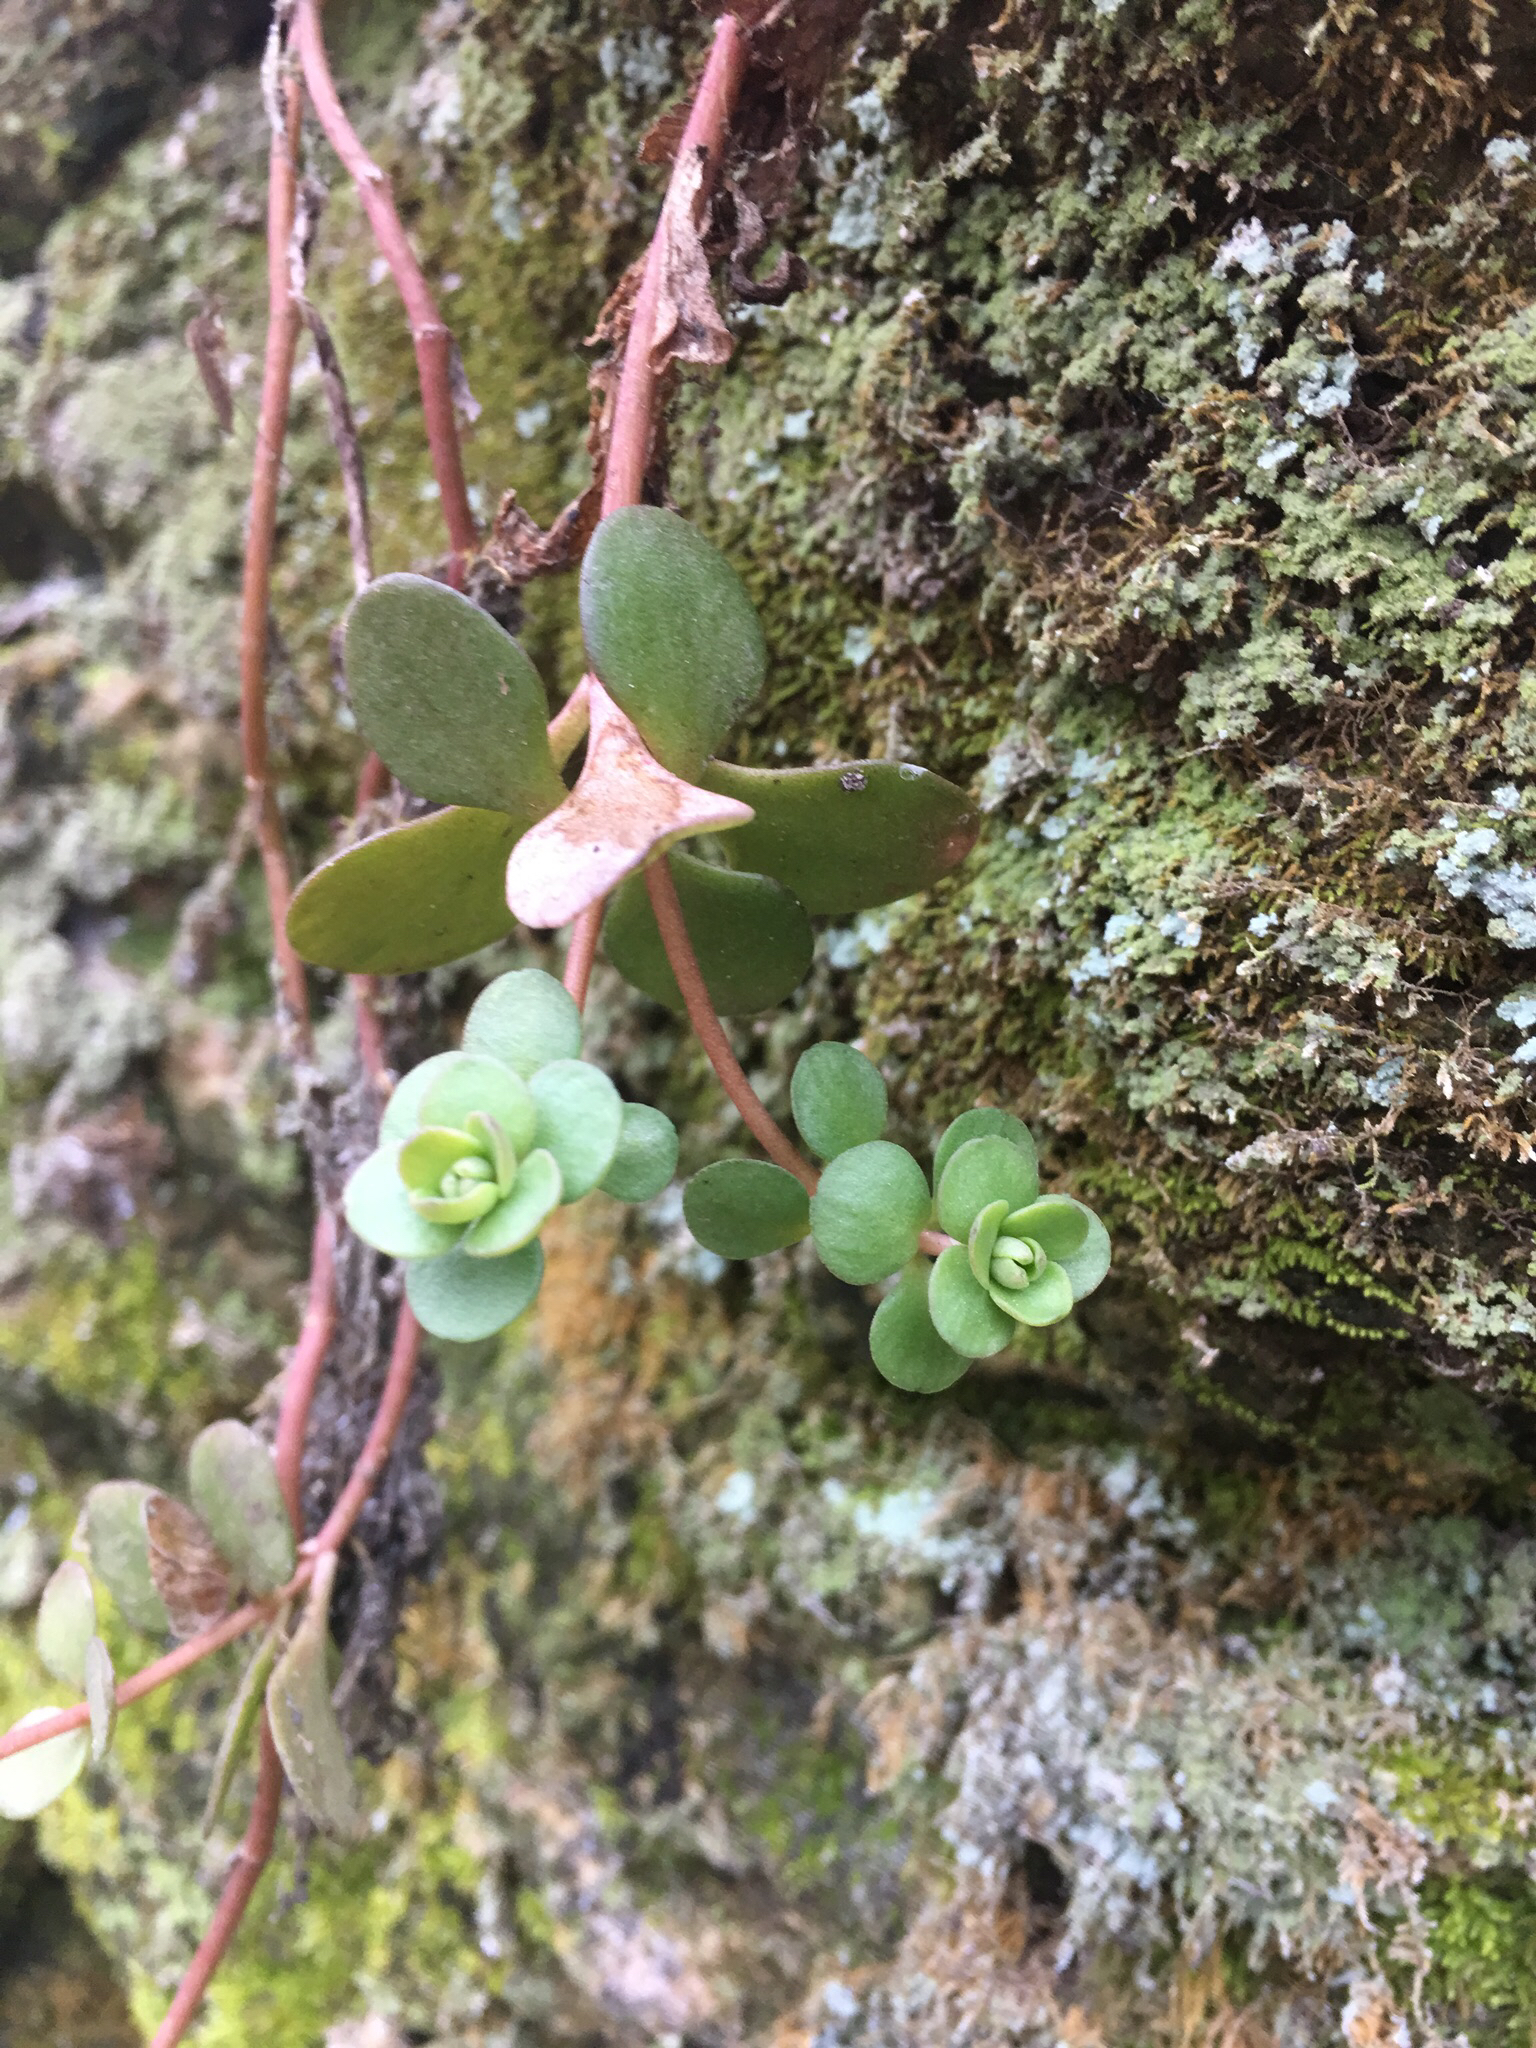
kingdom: Plantae
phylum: Tracheophyta
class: Magnoliopsida
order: Saxifragales
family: Crassulaceae
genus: Sedum
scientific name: Sedum ternatum
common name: Wild stonecrop
